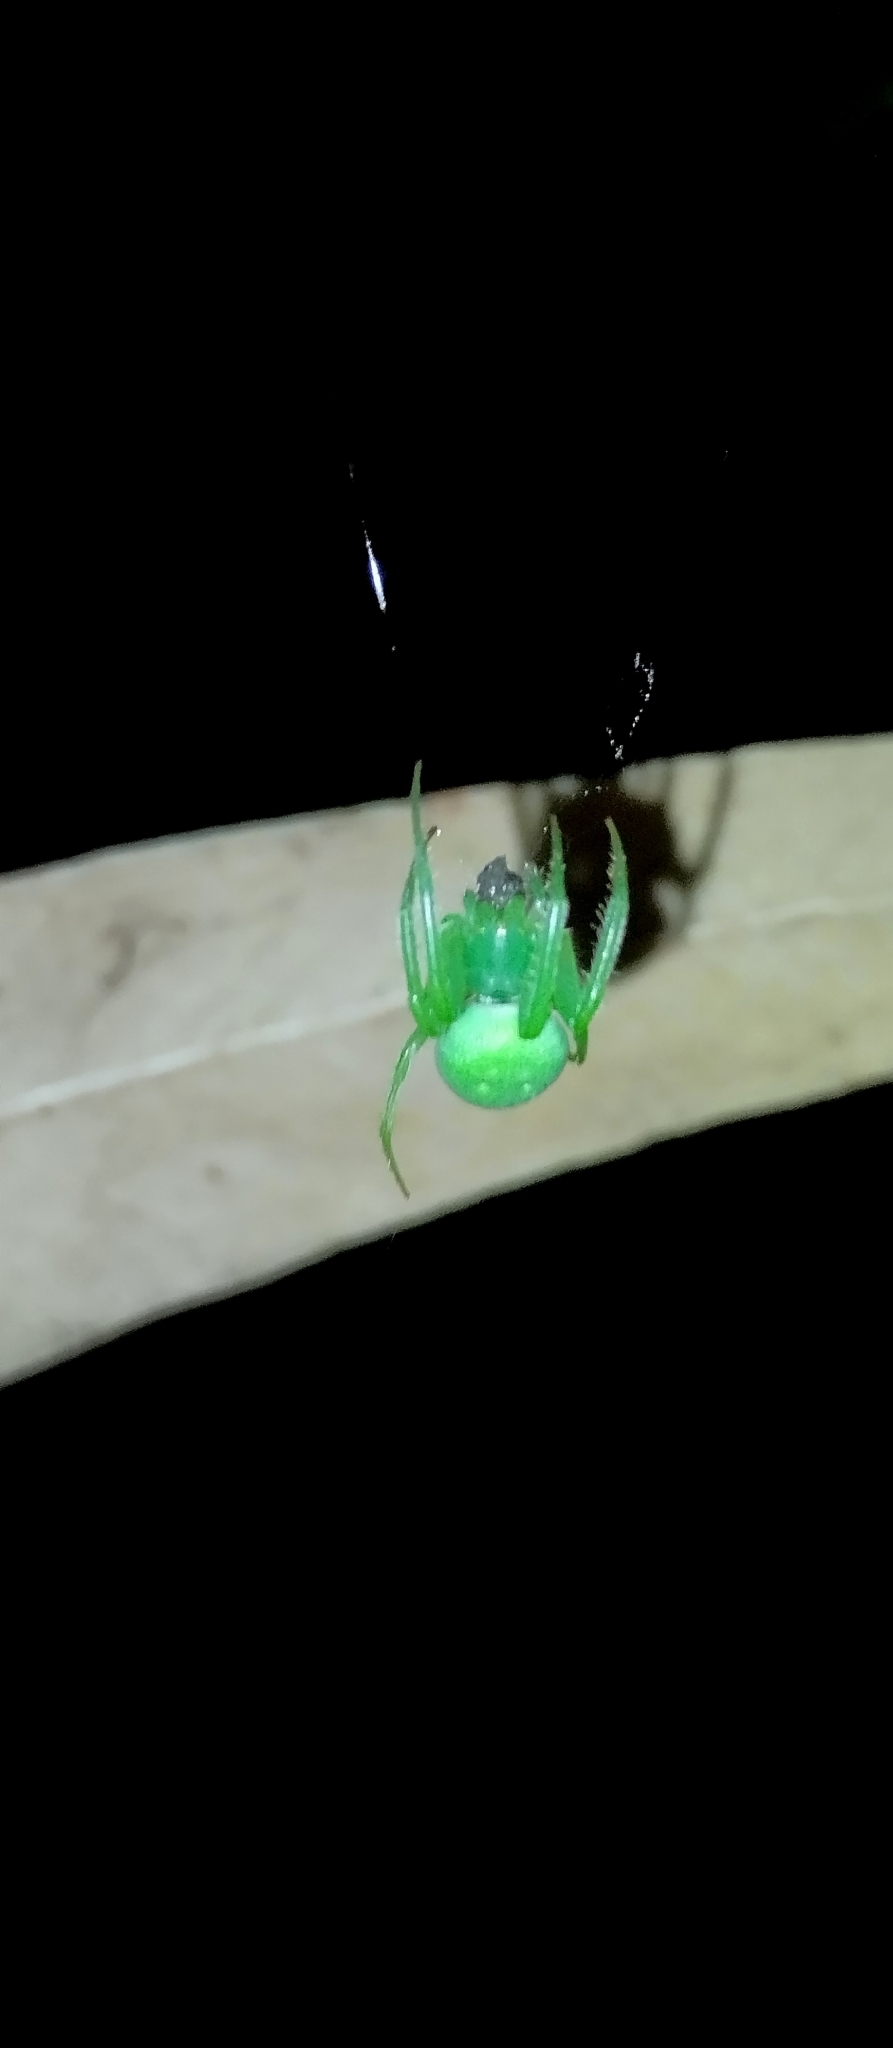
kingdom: Animalia
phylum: Arthropoda
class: Arachnida
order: Araneae
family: Araneidae
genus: Araneus
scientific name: Araneus uniformis
